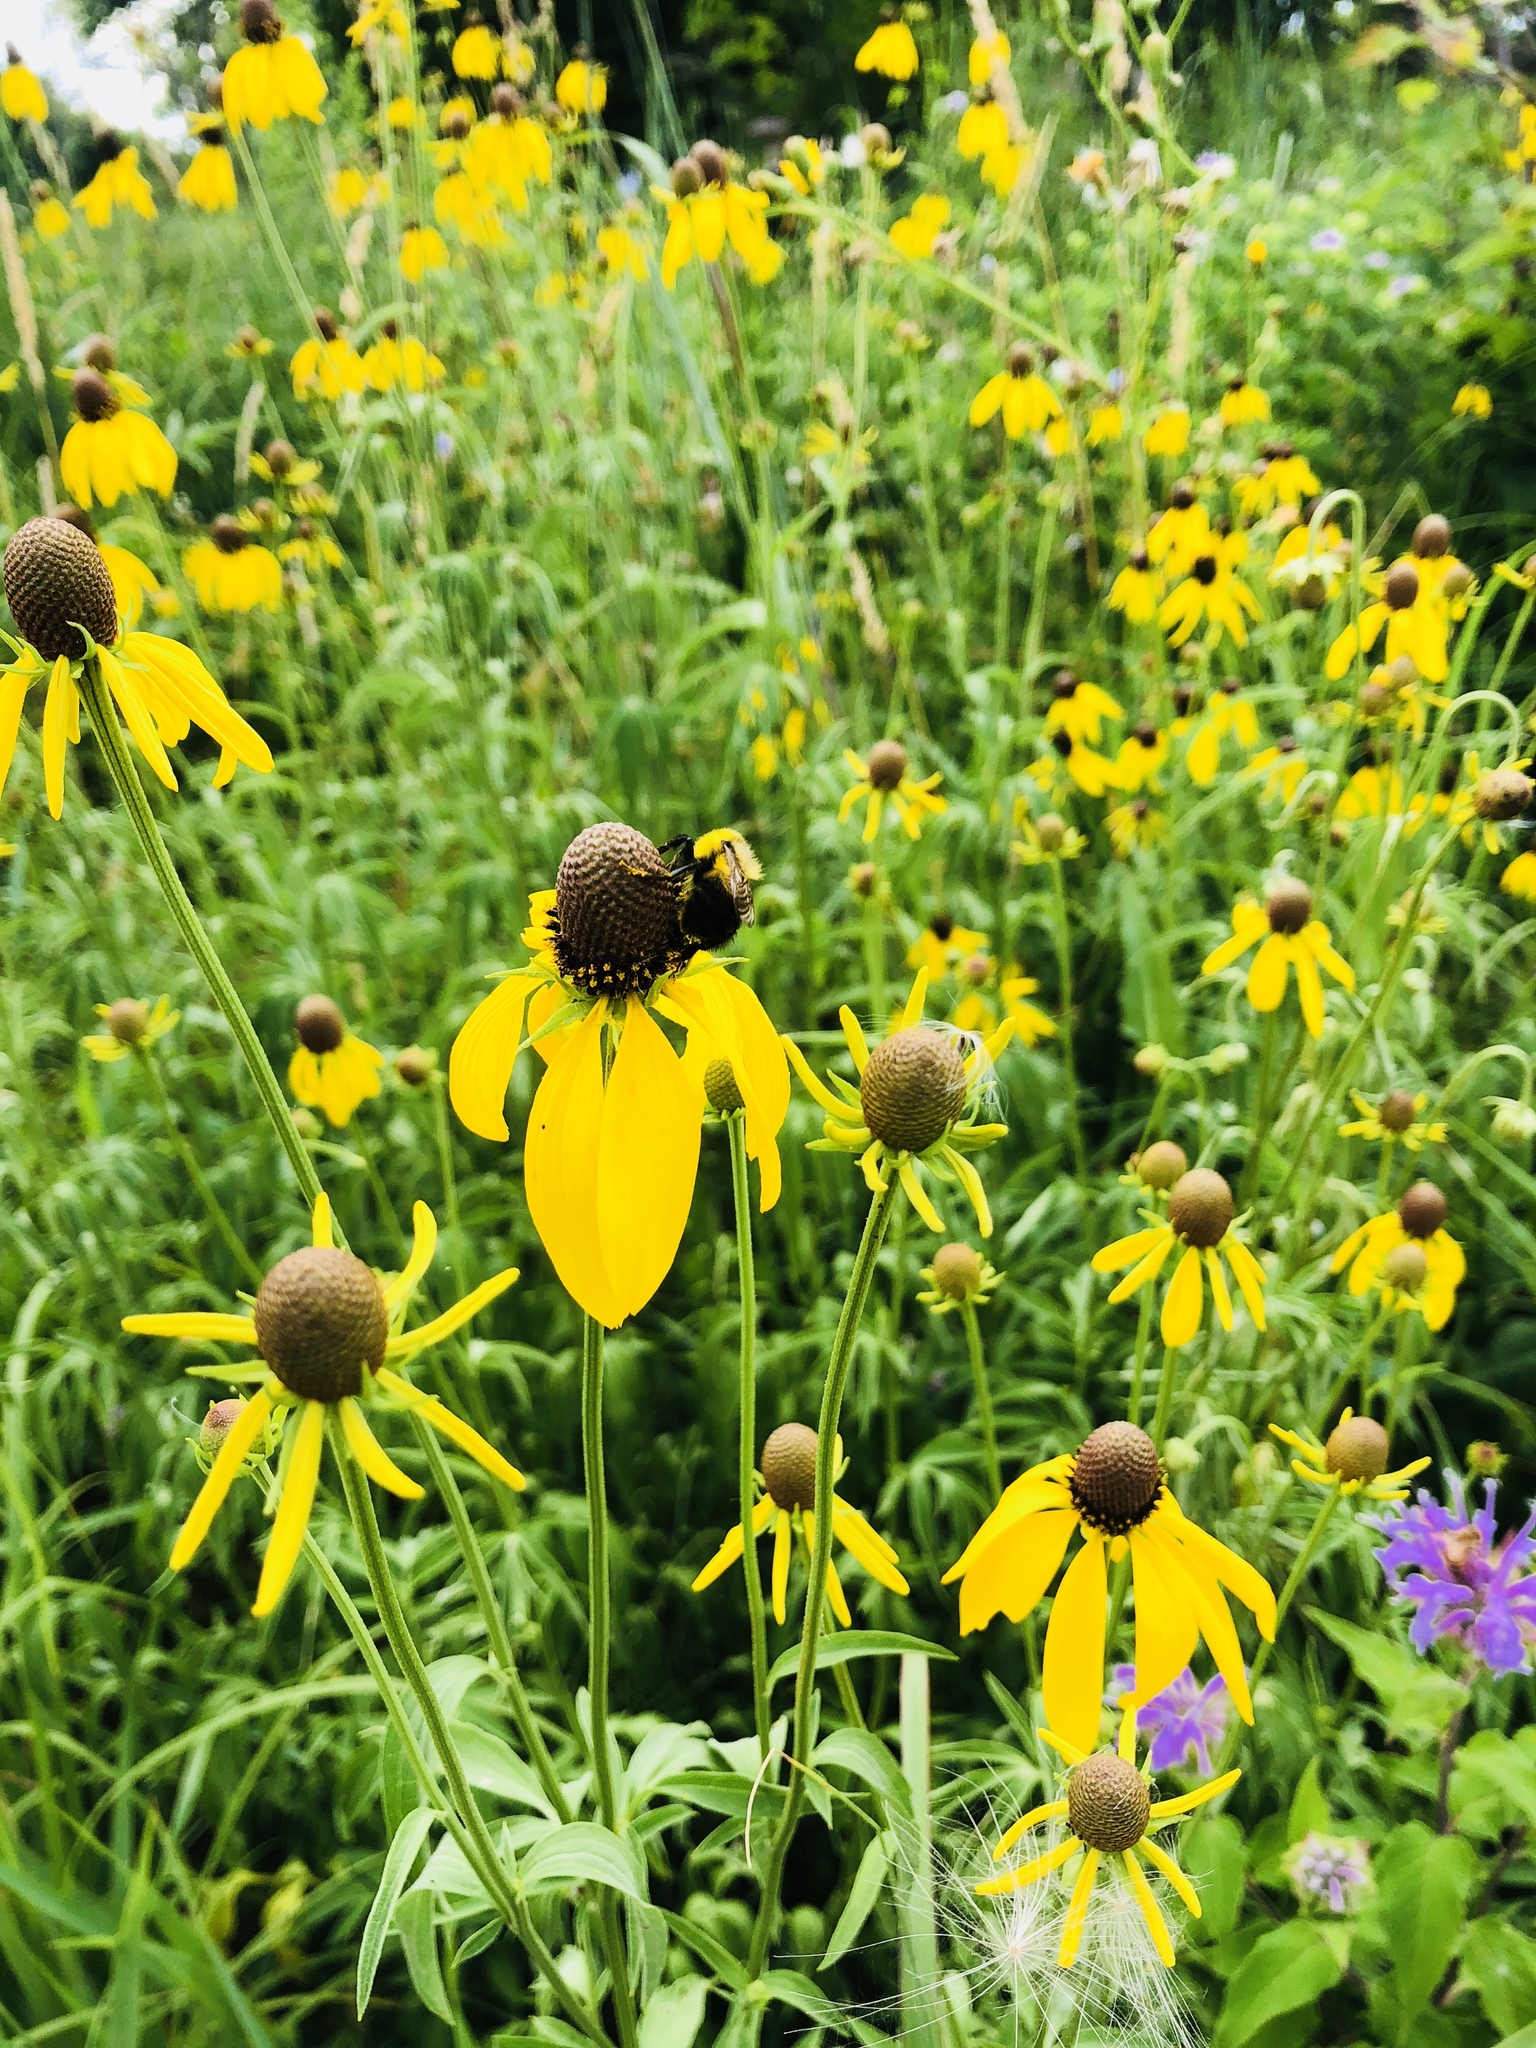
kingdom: Plantae
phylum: Tracheophyta
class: Magnoliopsida
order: Asterales
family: Asteraceae
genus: Ratibida
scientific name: Ratibida pinnata
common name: Drooping prairie-coneflower
